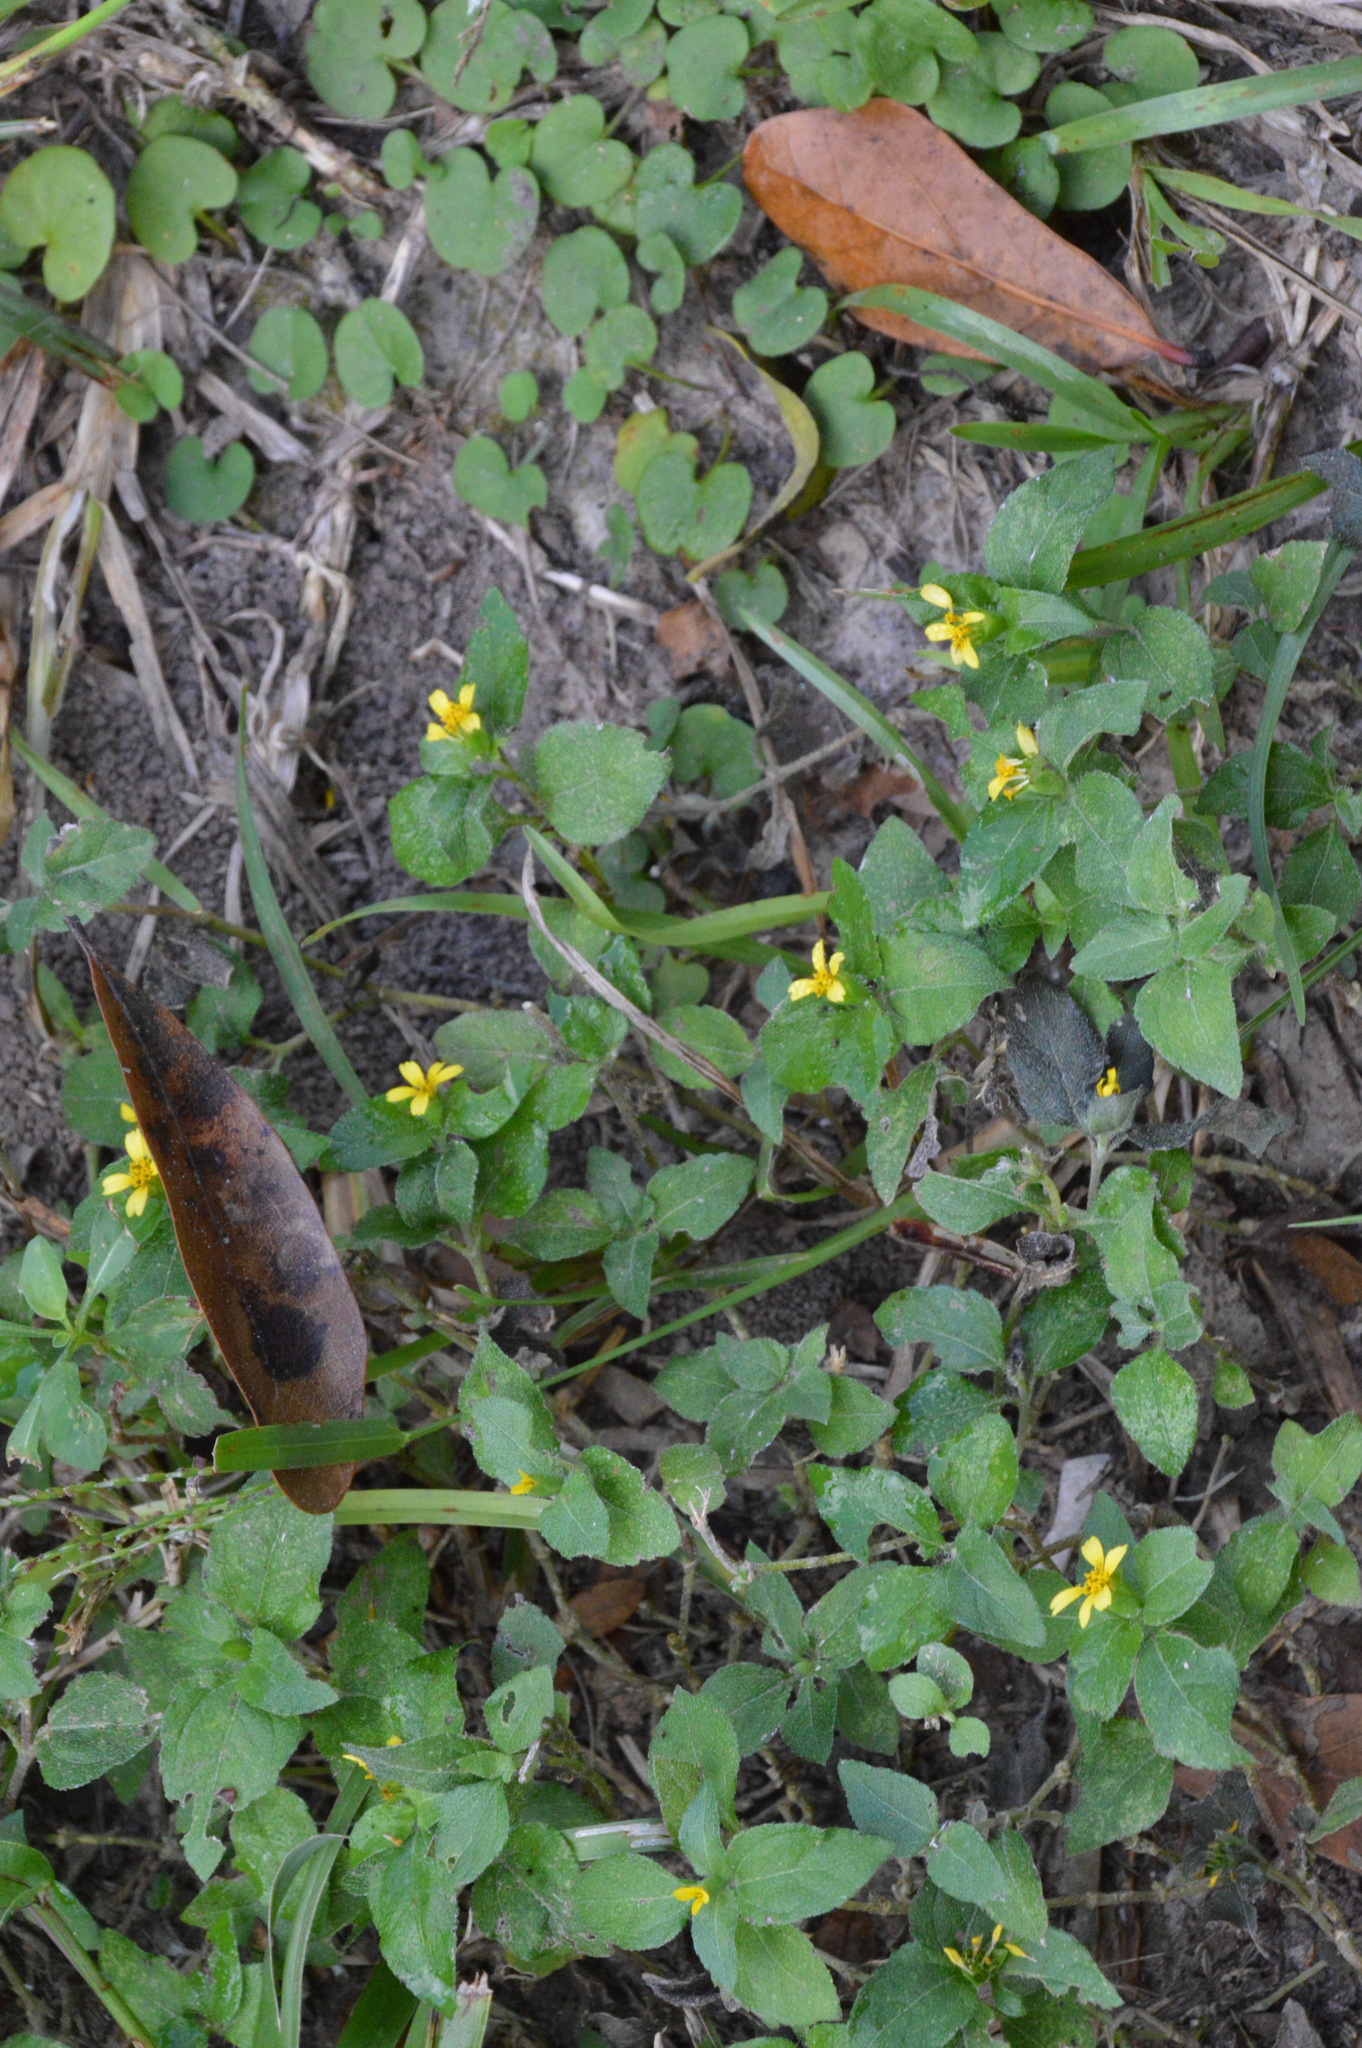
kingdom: Plantae
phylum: Tracheophyta
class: Magnoliopsida
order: Asterales
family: Asteraceae
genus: Calyptocarpus
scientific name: Calyptocarpus vialis
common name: Straggler daisy
